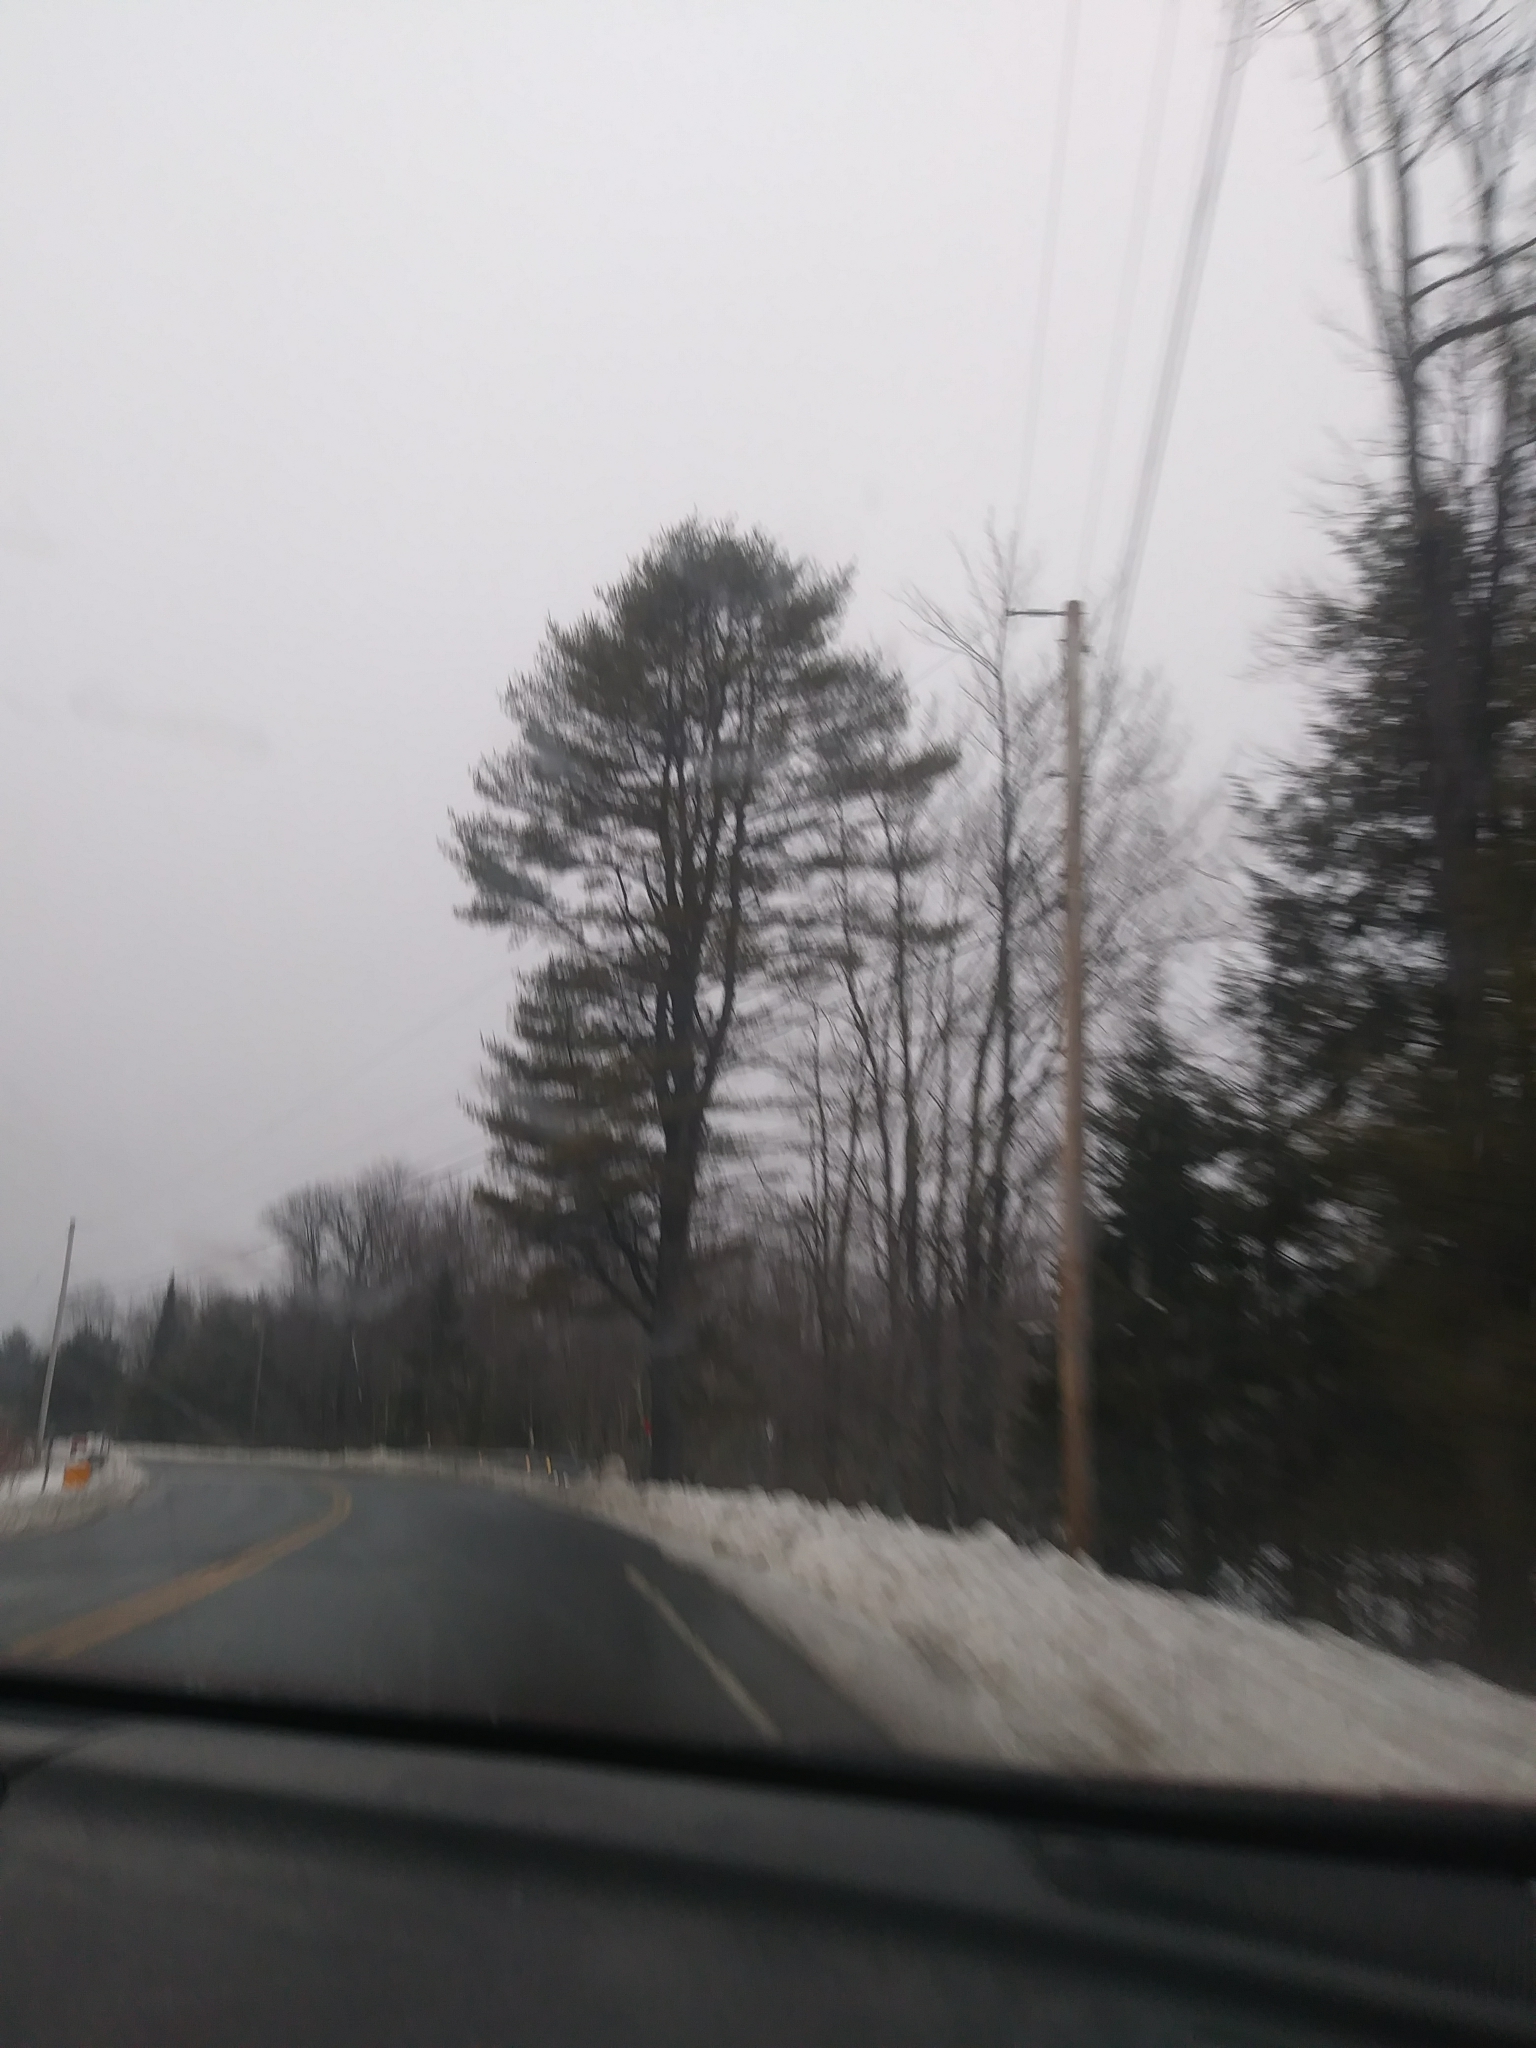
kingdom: Plantae
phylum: Tracheophyta
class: Pinopsida
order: Pinales
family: Pinaceae
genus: Pinus
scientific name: Pinus strobus
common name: Weymouth pine
